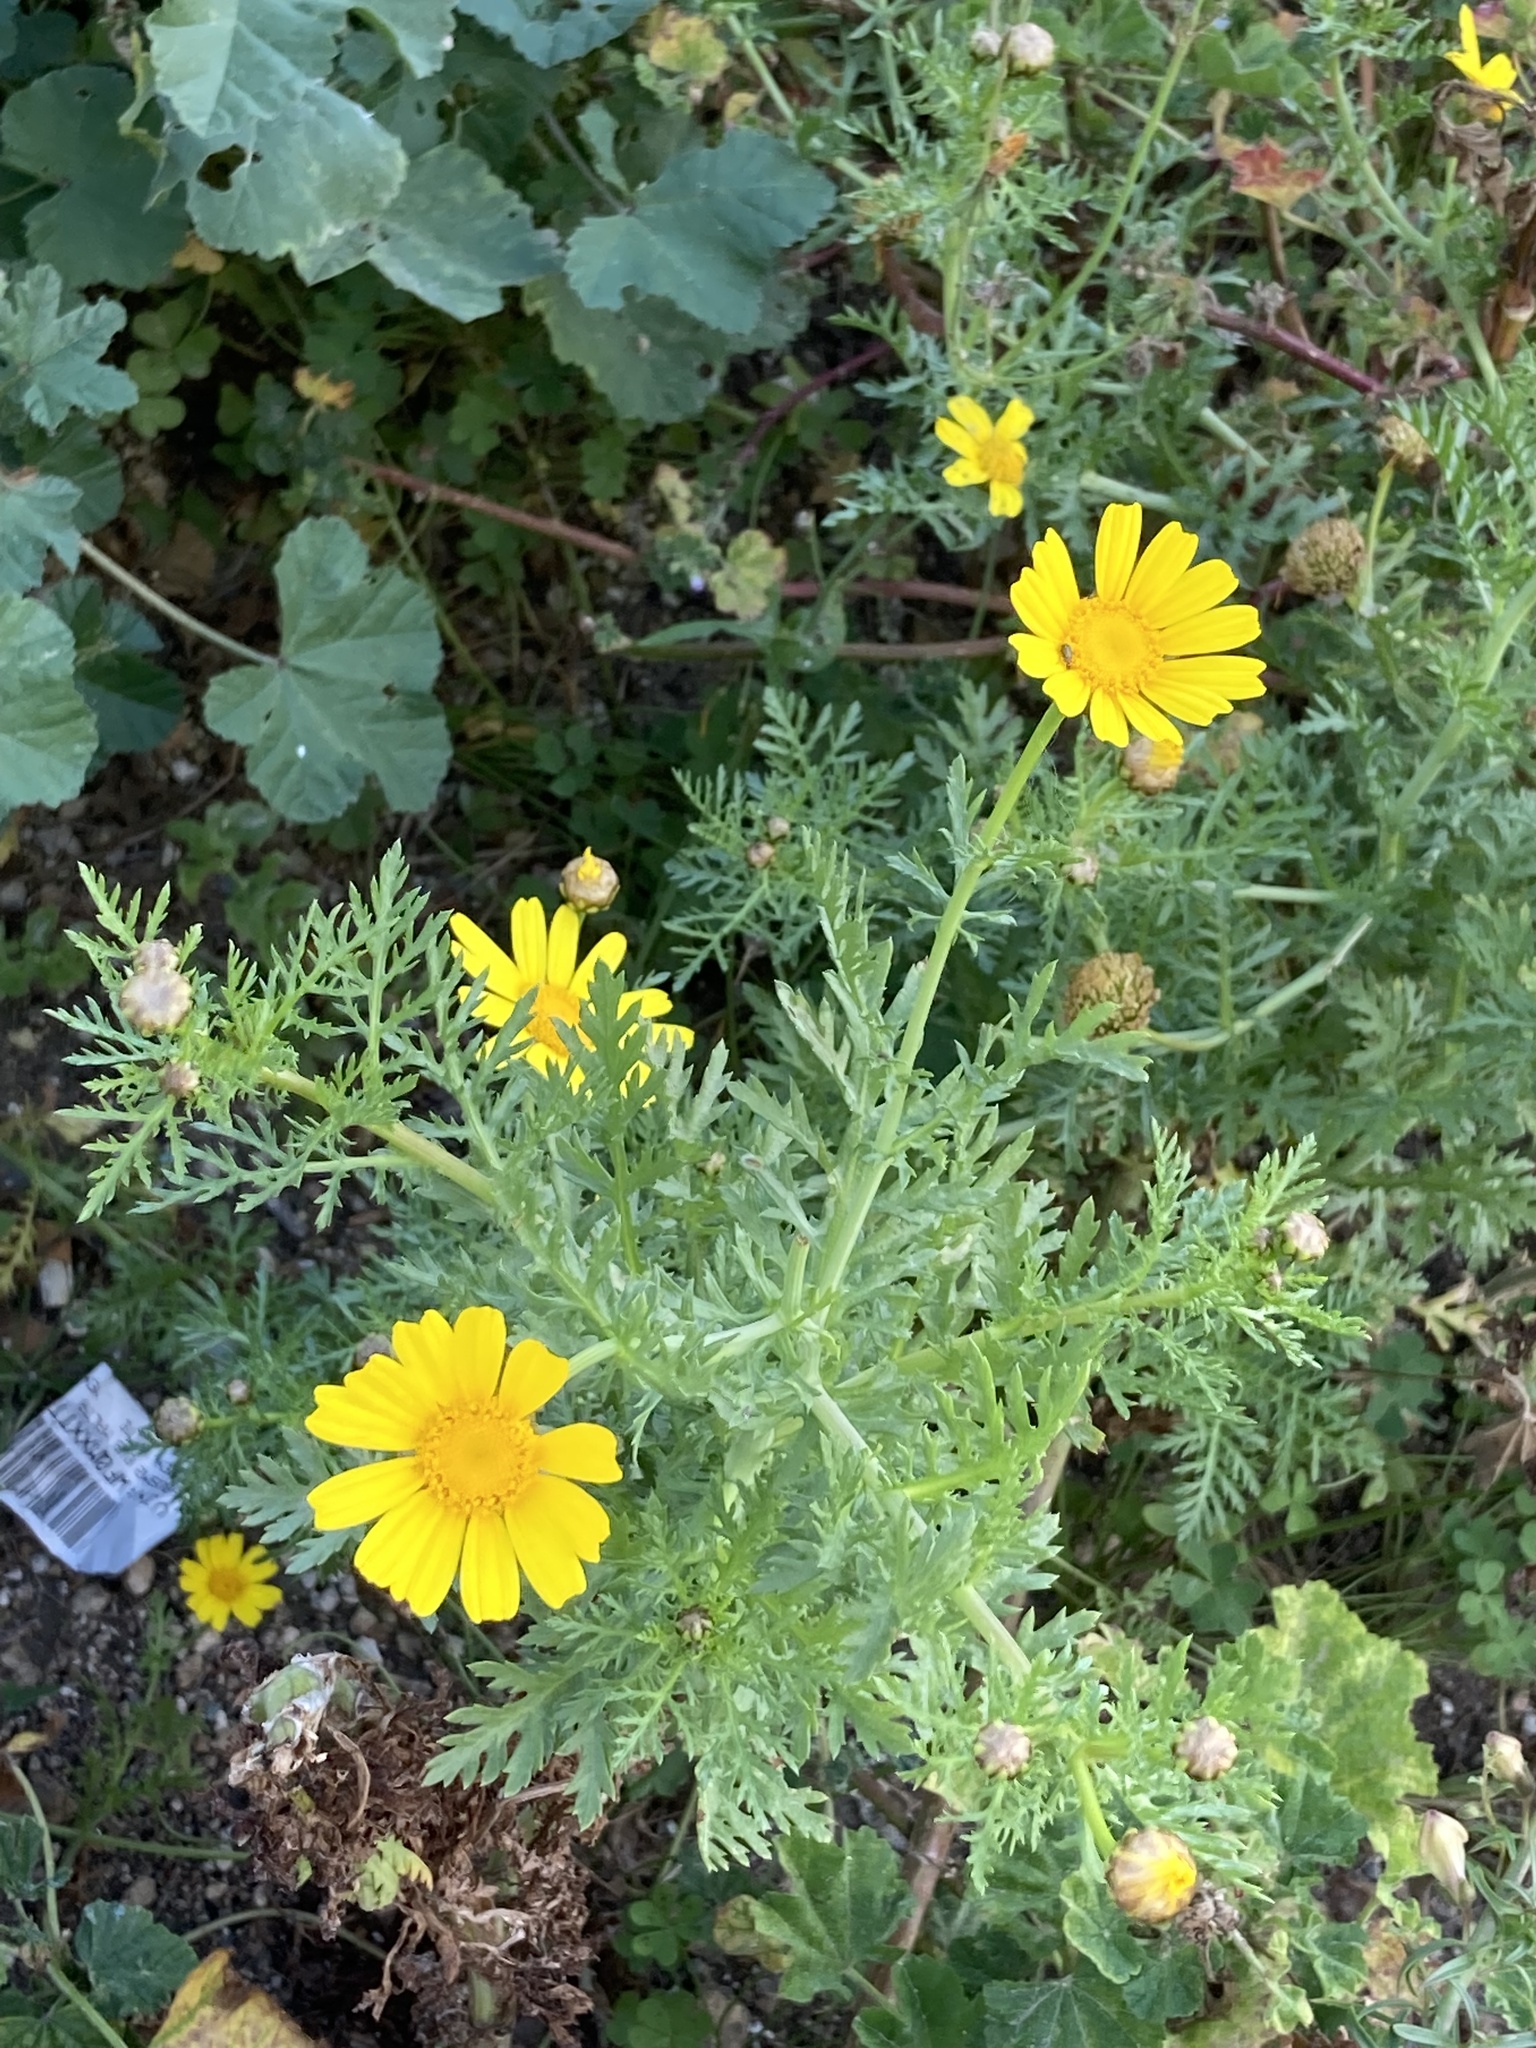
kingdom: Plantae
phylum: Tracheophyta
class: Magnoliopsida
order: Asterales
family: Asteraceae
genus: Glebionis
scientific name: Glebionis coronaria
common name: Crowndaisy
